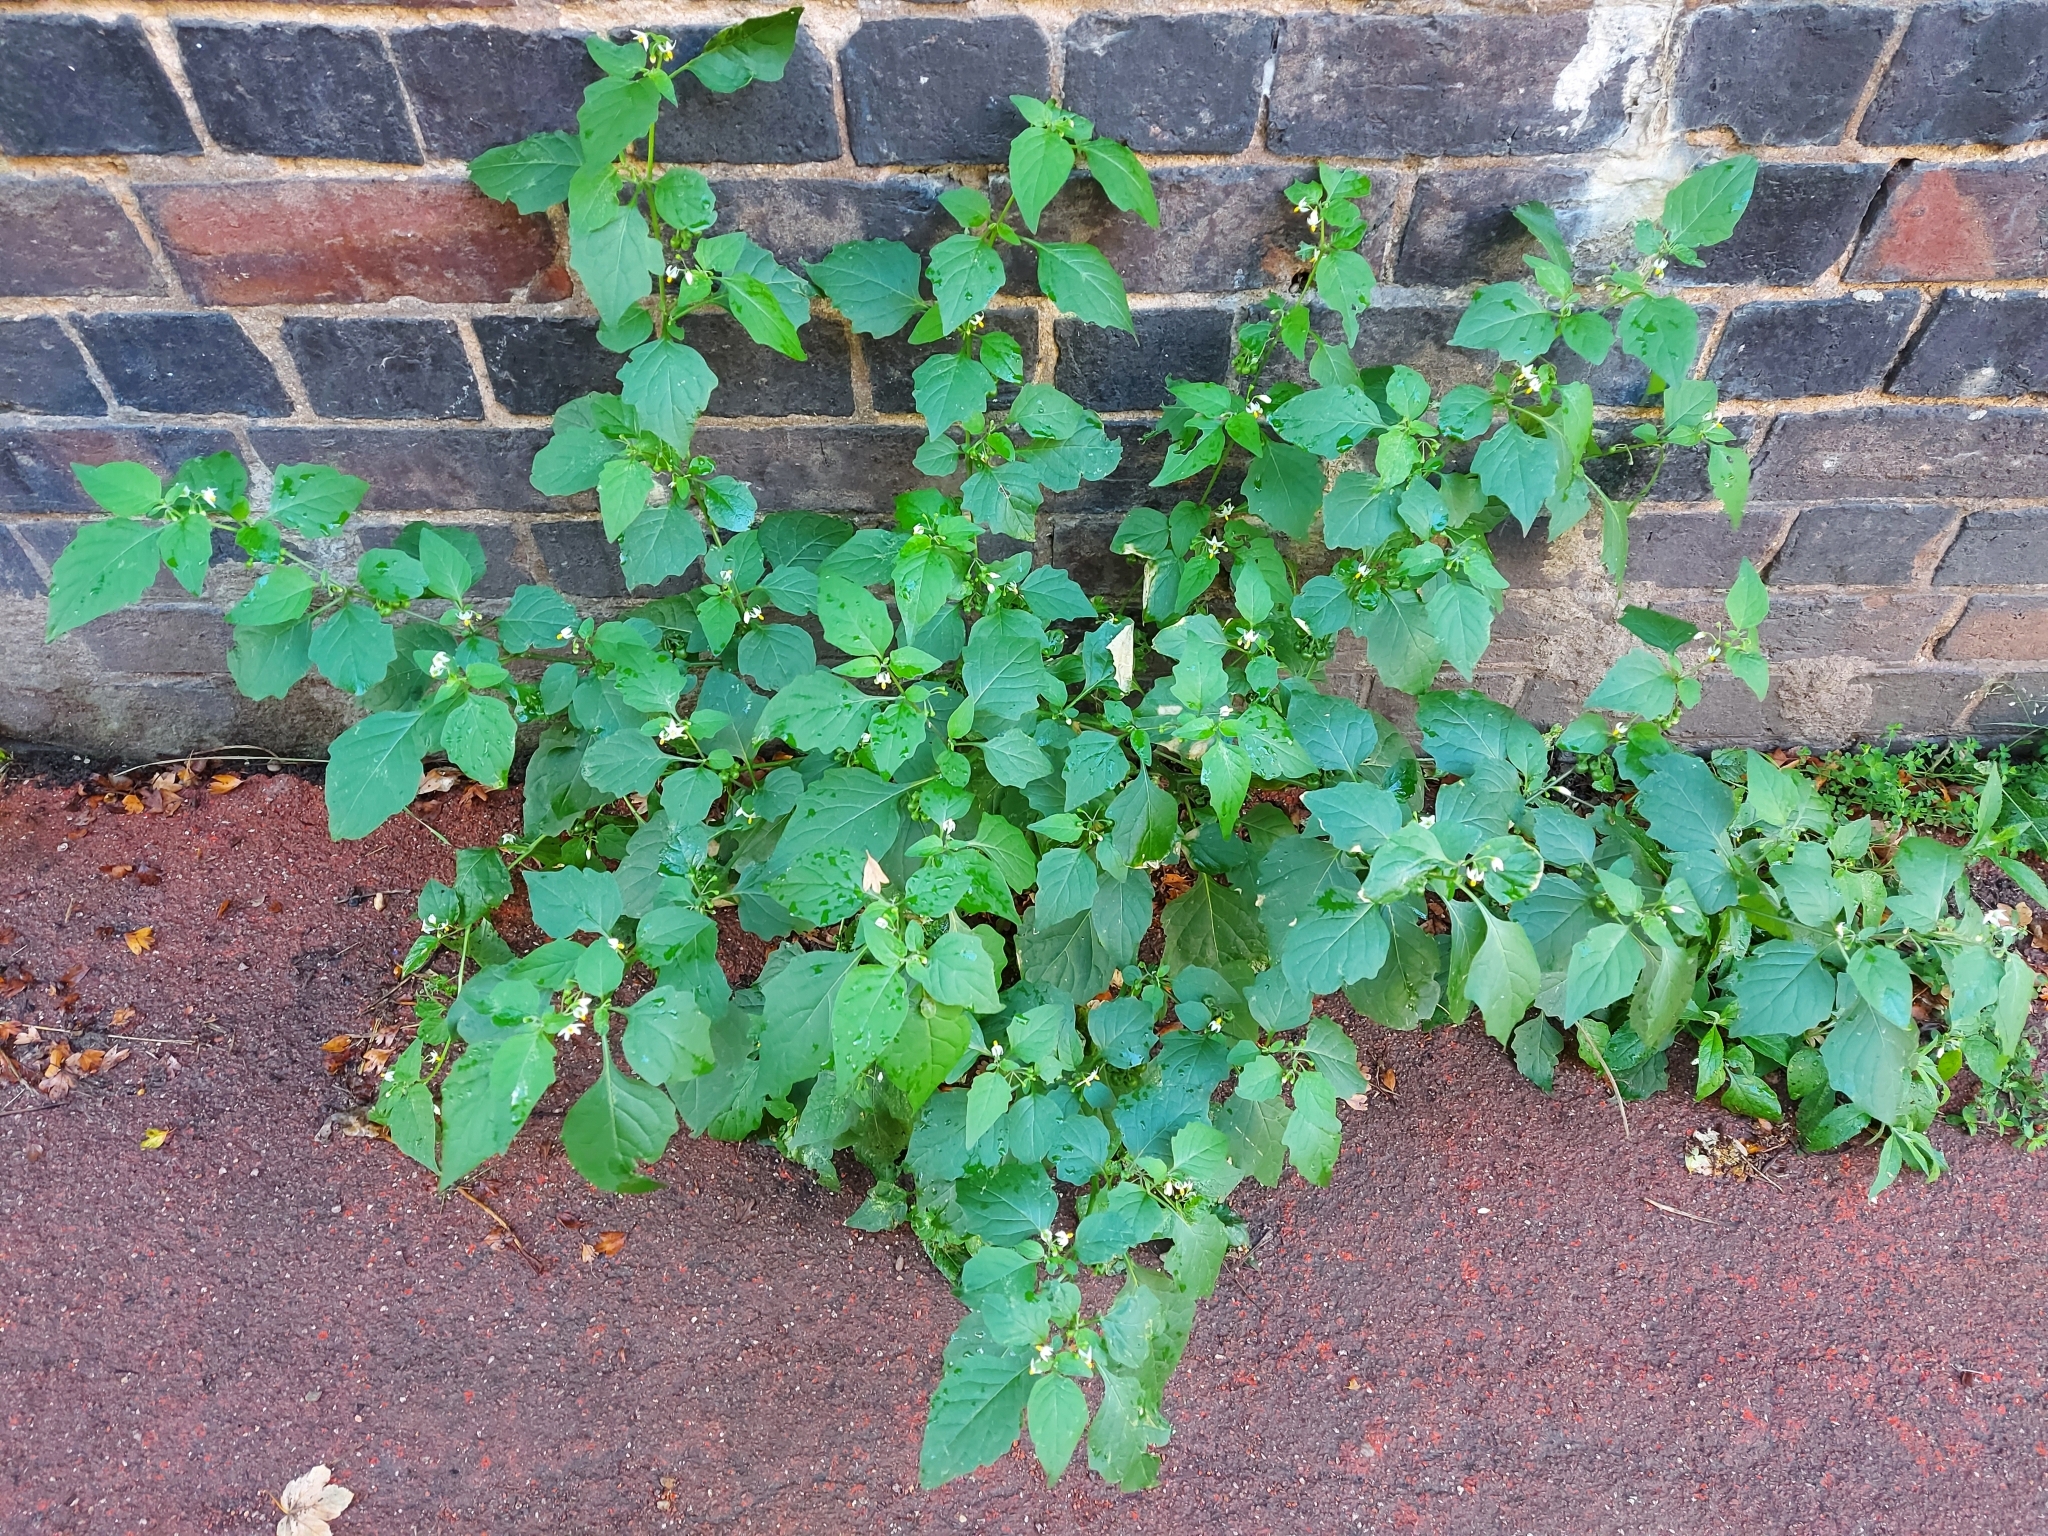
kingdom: Plantae
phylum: Tracheophyta
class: Magnoliopsida
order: Solanales
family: Solanaceae
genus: Solanum
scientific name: Solanum nigrum
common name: Black nightshade
